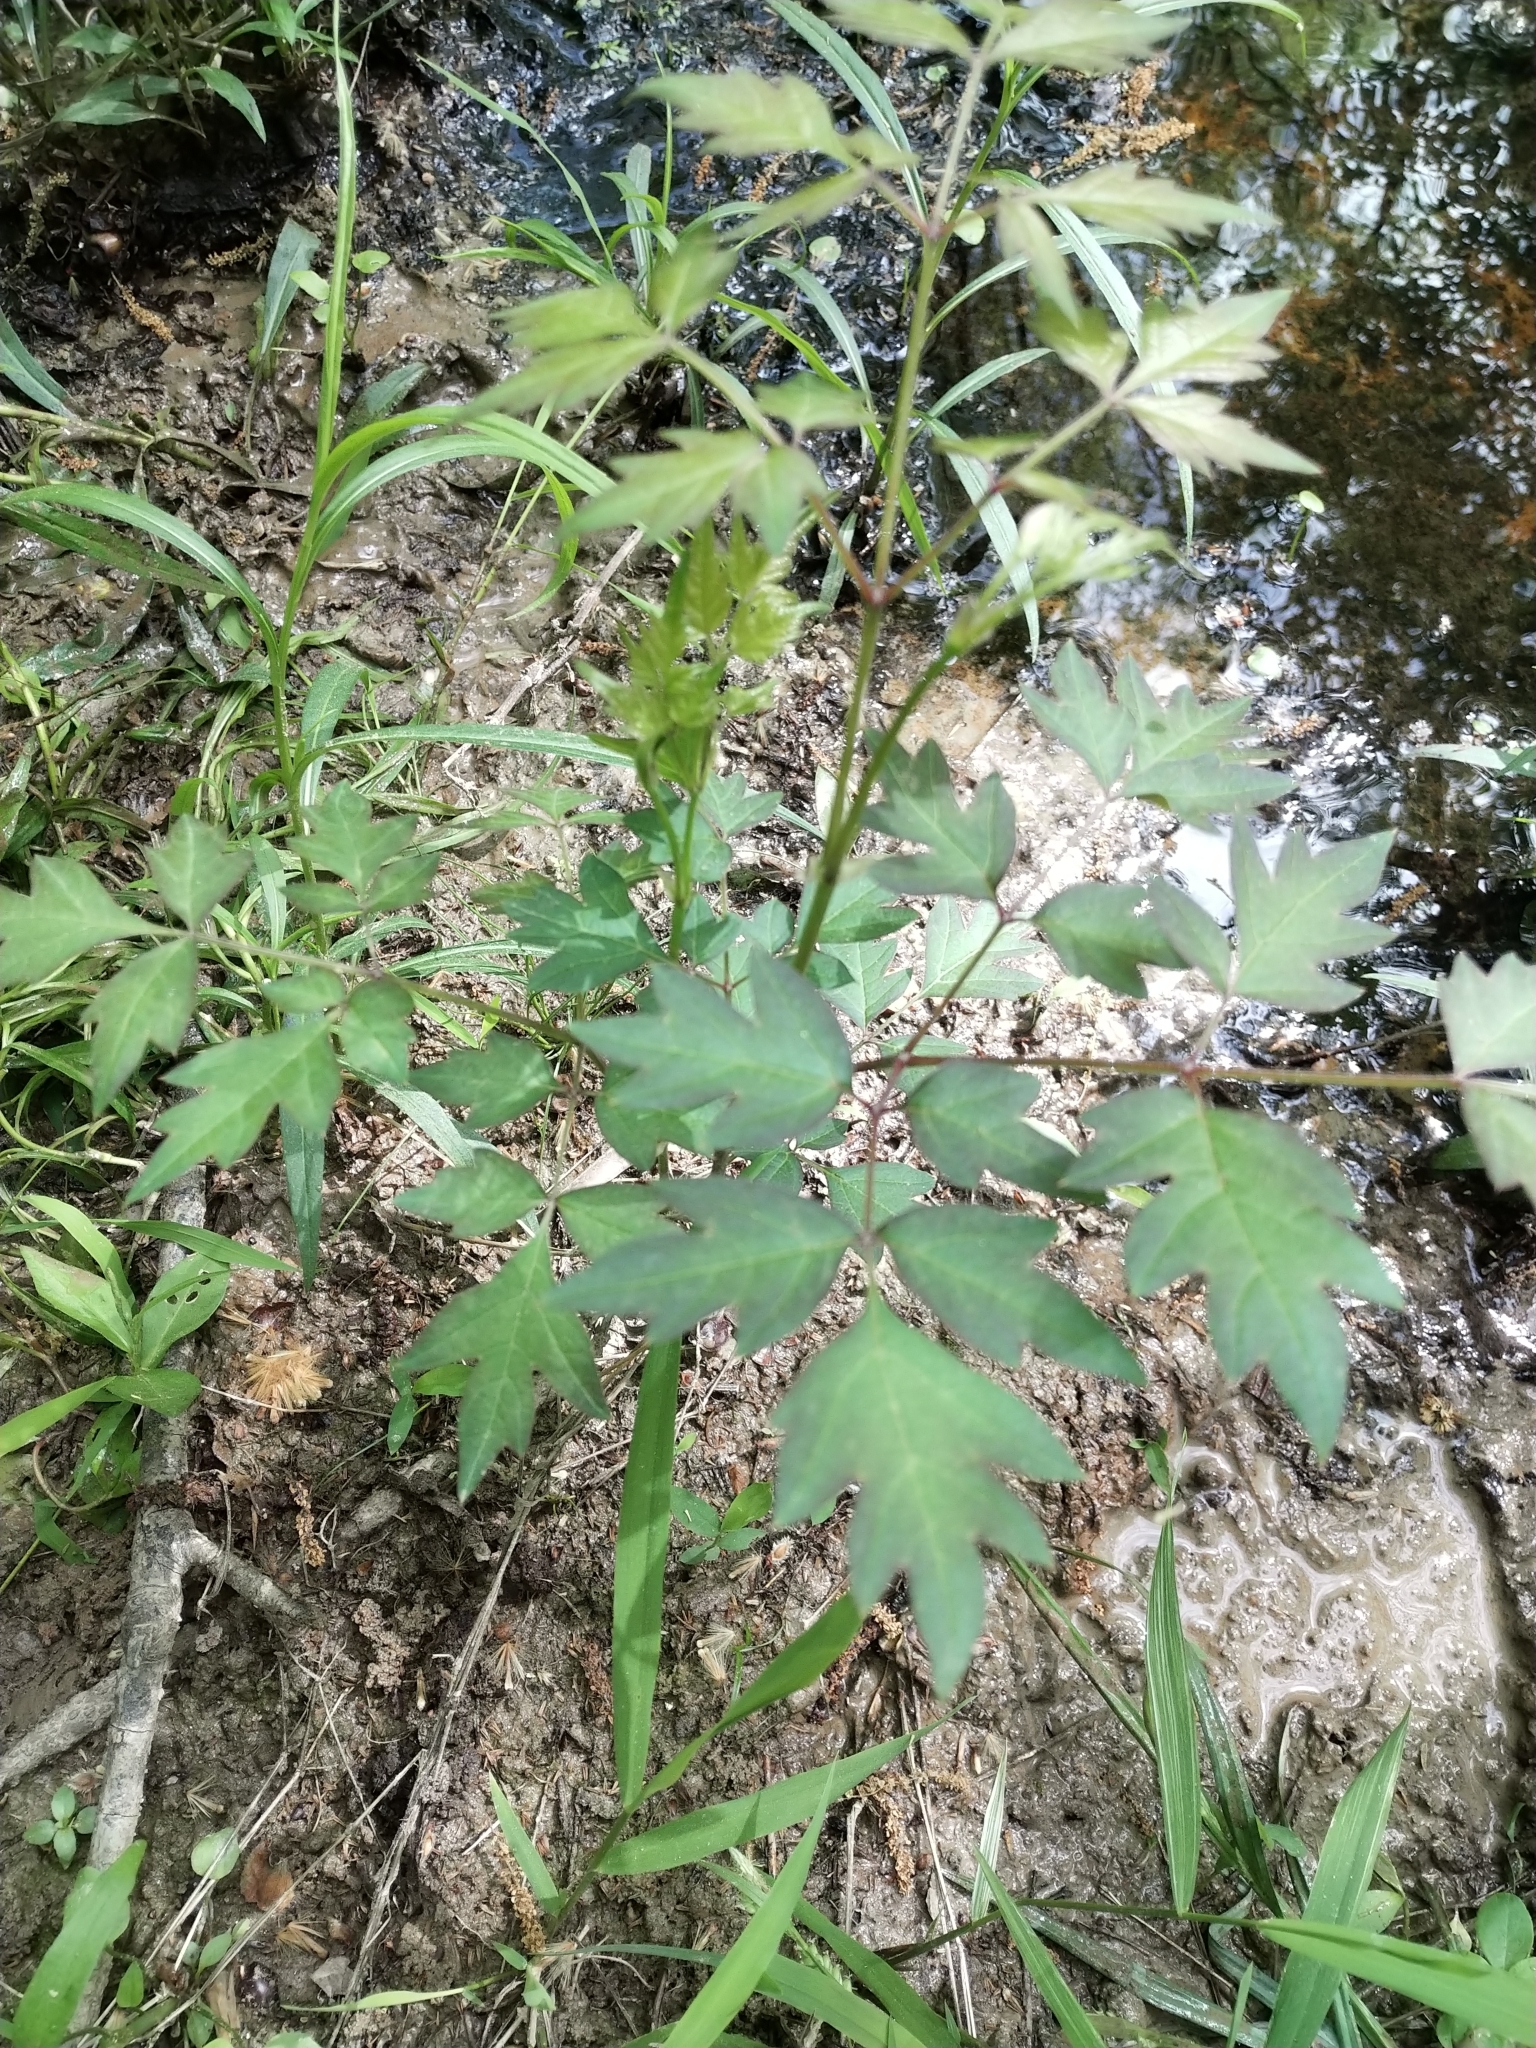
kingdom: Plantae
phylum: Tracheophyta
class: Magnoliopsida
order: Vitales
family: Vitaceae
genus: Nekemias
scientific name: Nekemias arborea
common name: Peppervine
